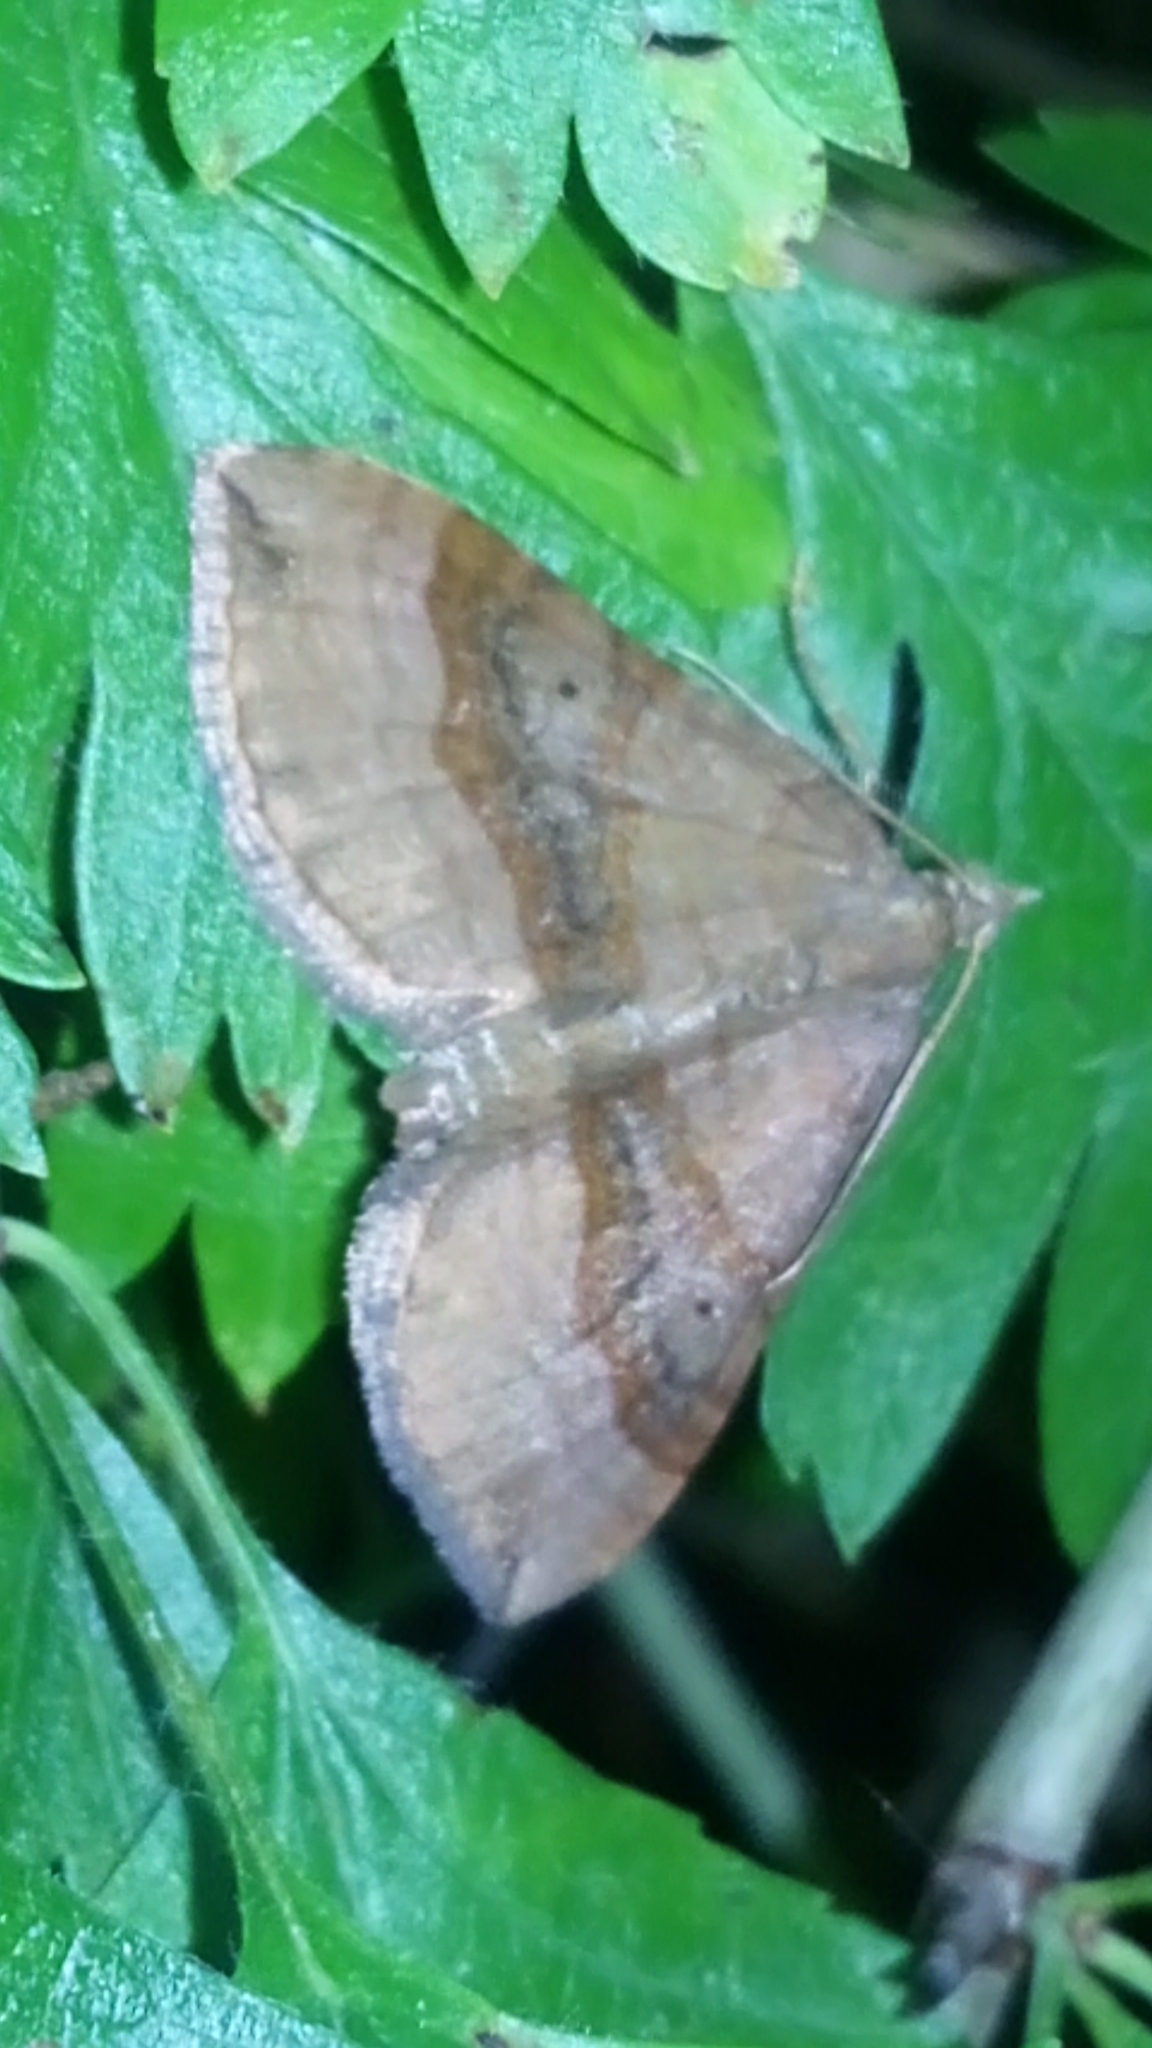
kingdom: Animalia
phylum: Arthropoda
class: Insecta
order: Lepidoptera
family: Geometridae
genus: Scotopteryx
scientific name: Scotopteryx chenopodiata
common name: Shaded broad-bar
